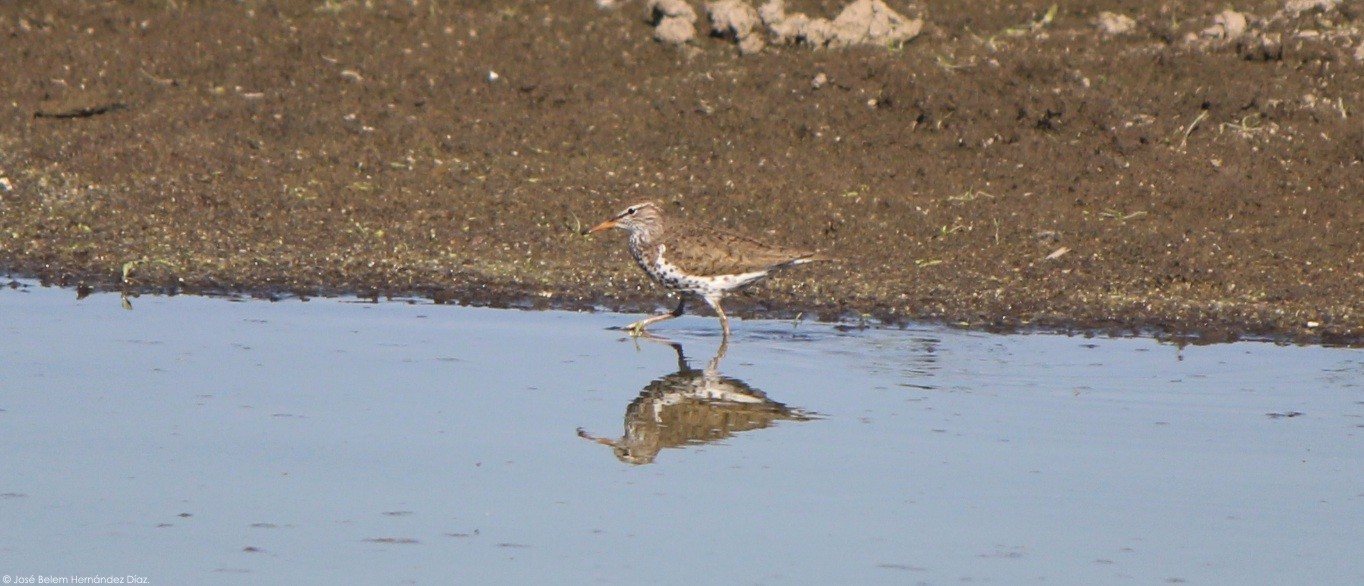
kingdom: Animalia
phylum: Chordata
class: Aves
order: Charadriiformes
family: Scolopacidae
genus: Actitis
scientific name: Actitis macularius
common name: Spotted sandpiper
